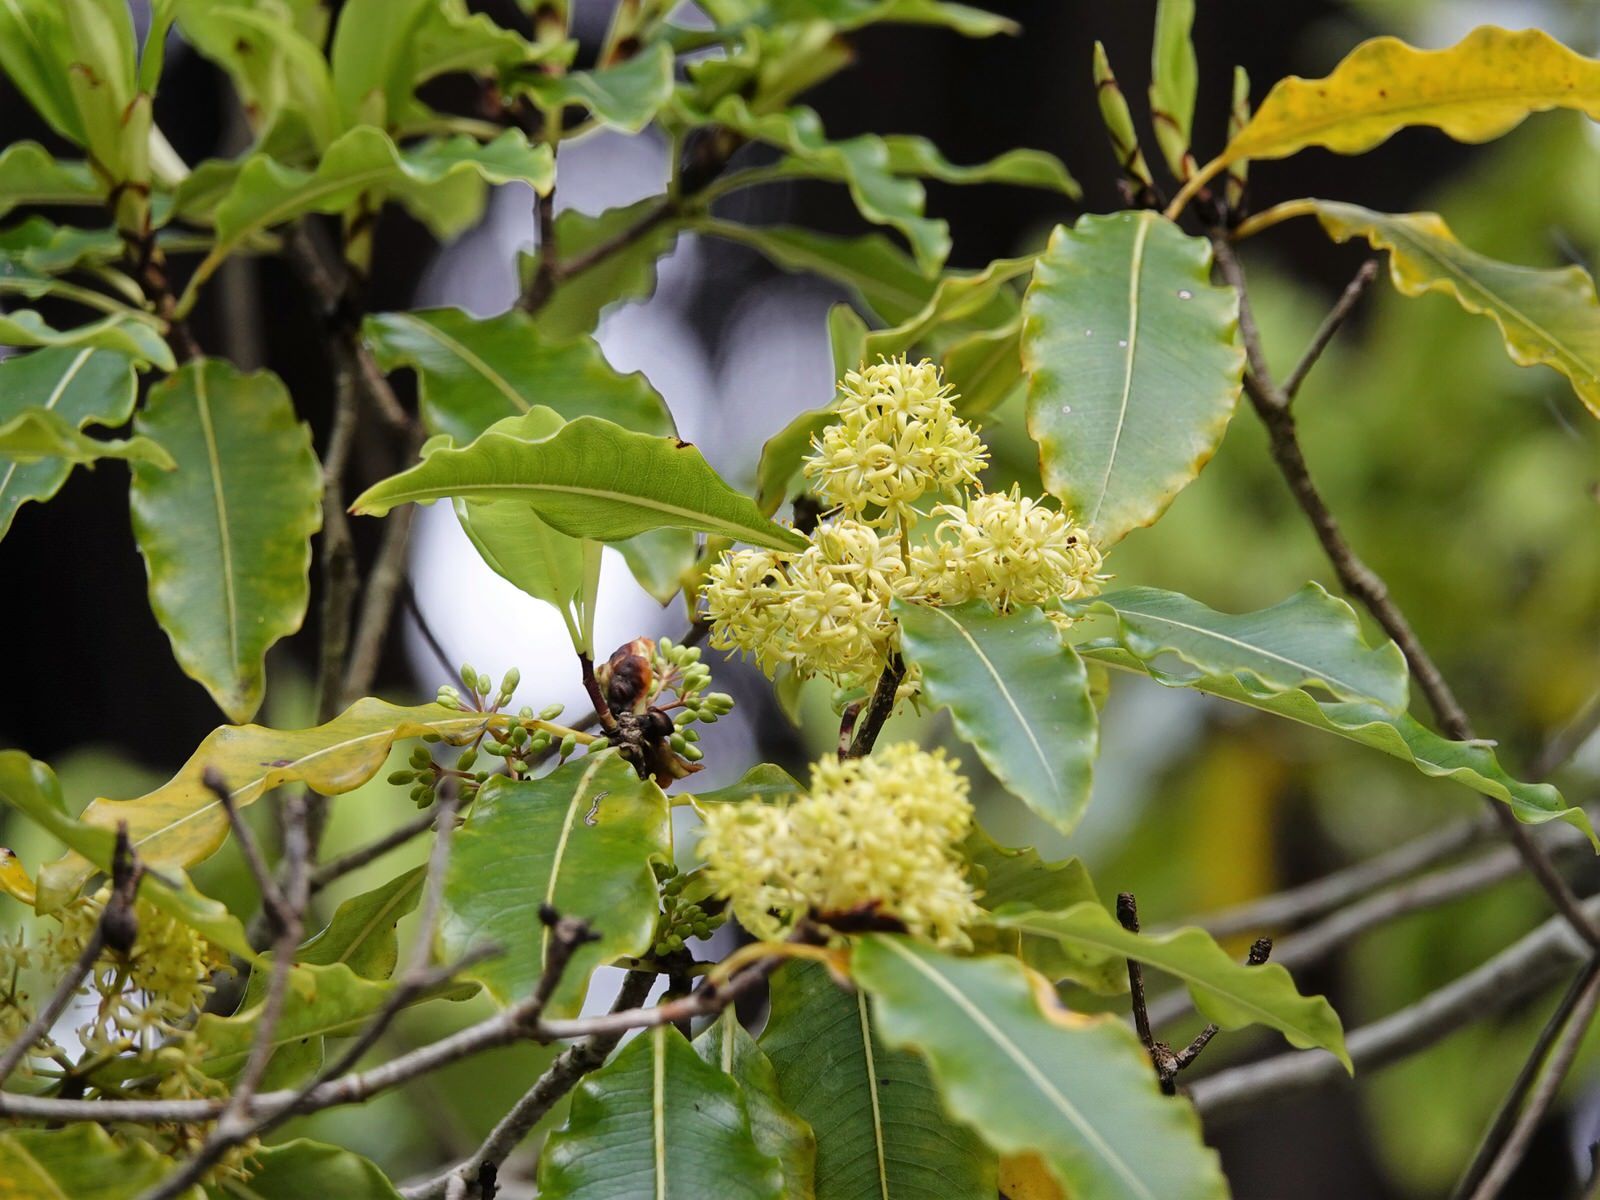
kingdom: Plantae
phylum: Tracheophyta
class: Magnoliopsida
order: Apiales
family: Pittosporaceae
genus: Pittosporum
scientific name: Pittosporum eugenioides
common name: Lemonwood
